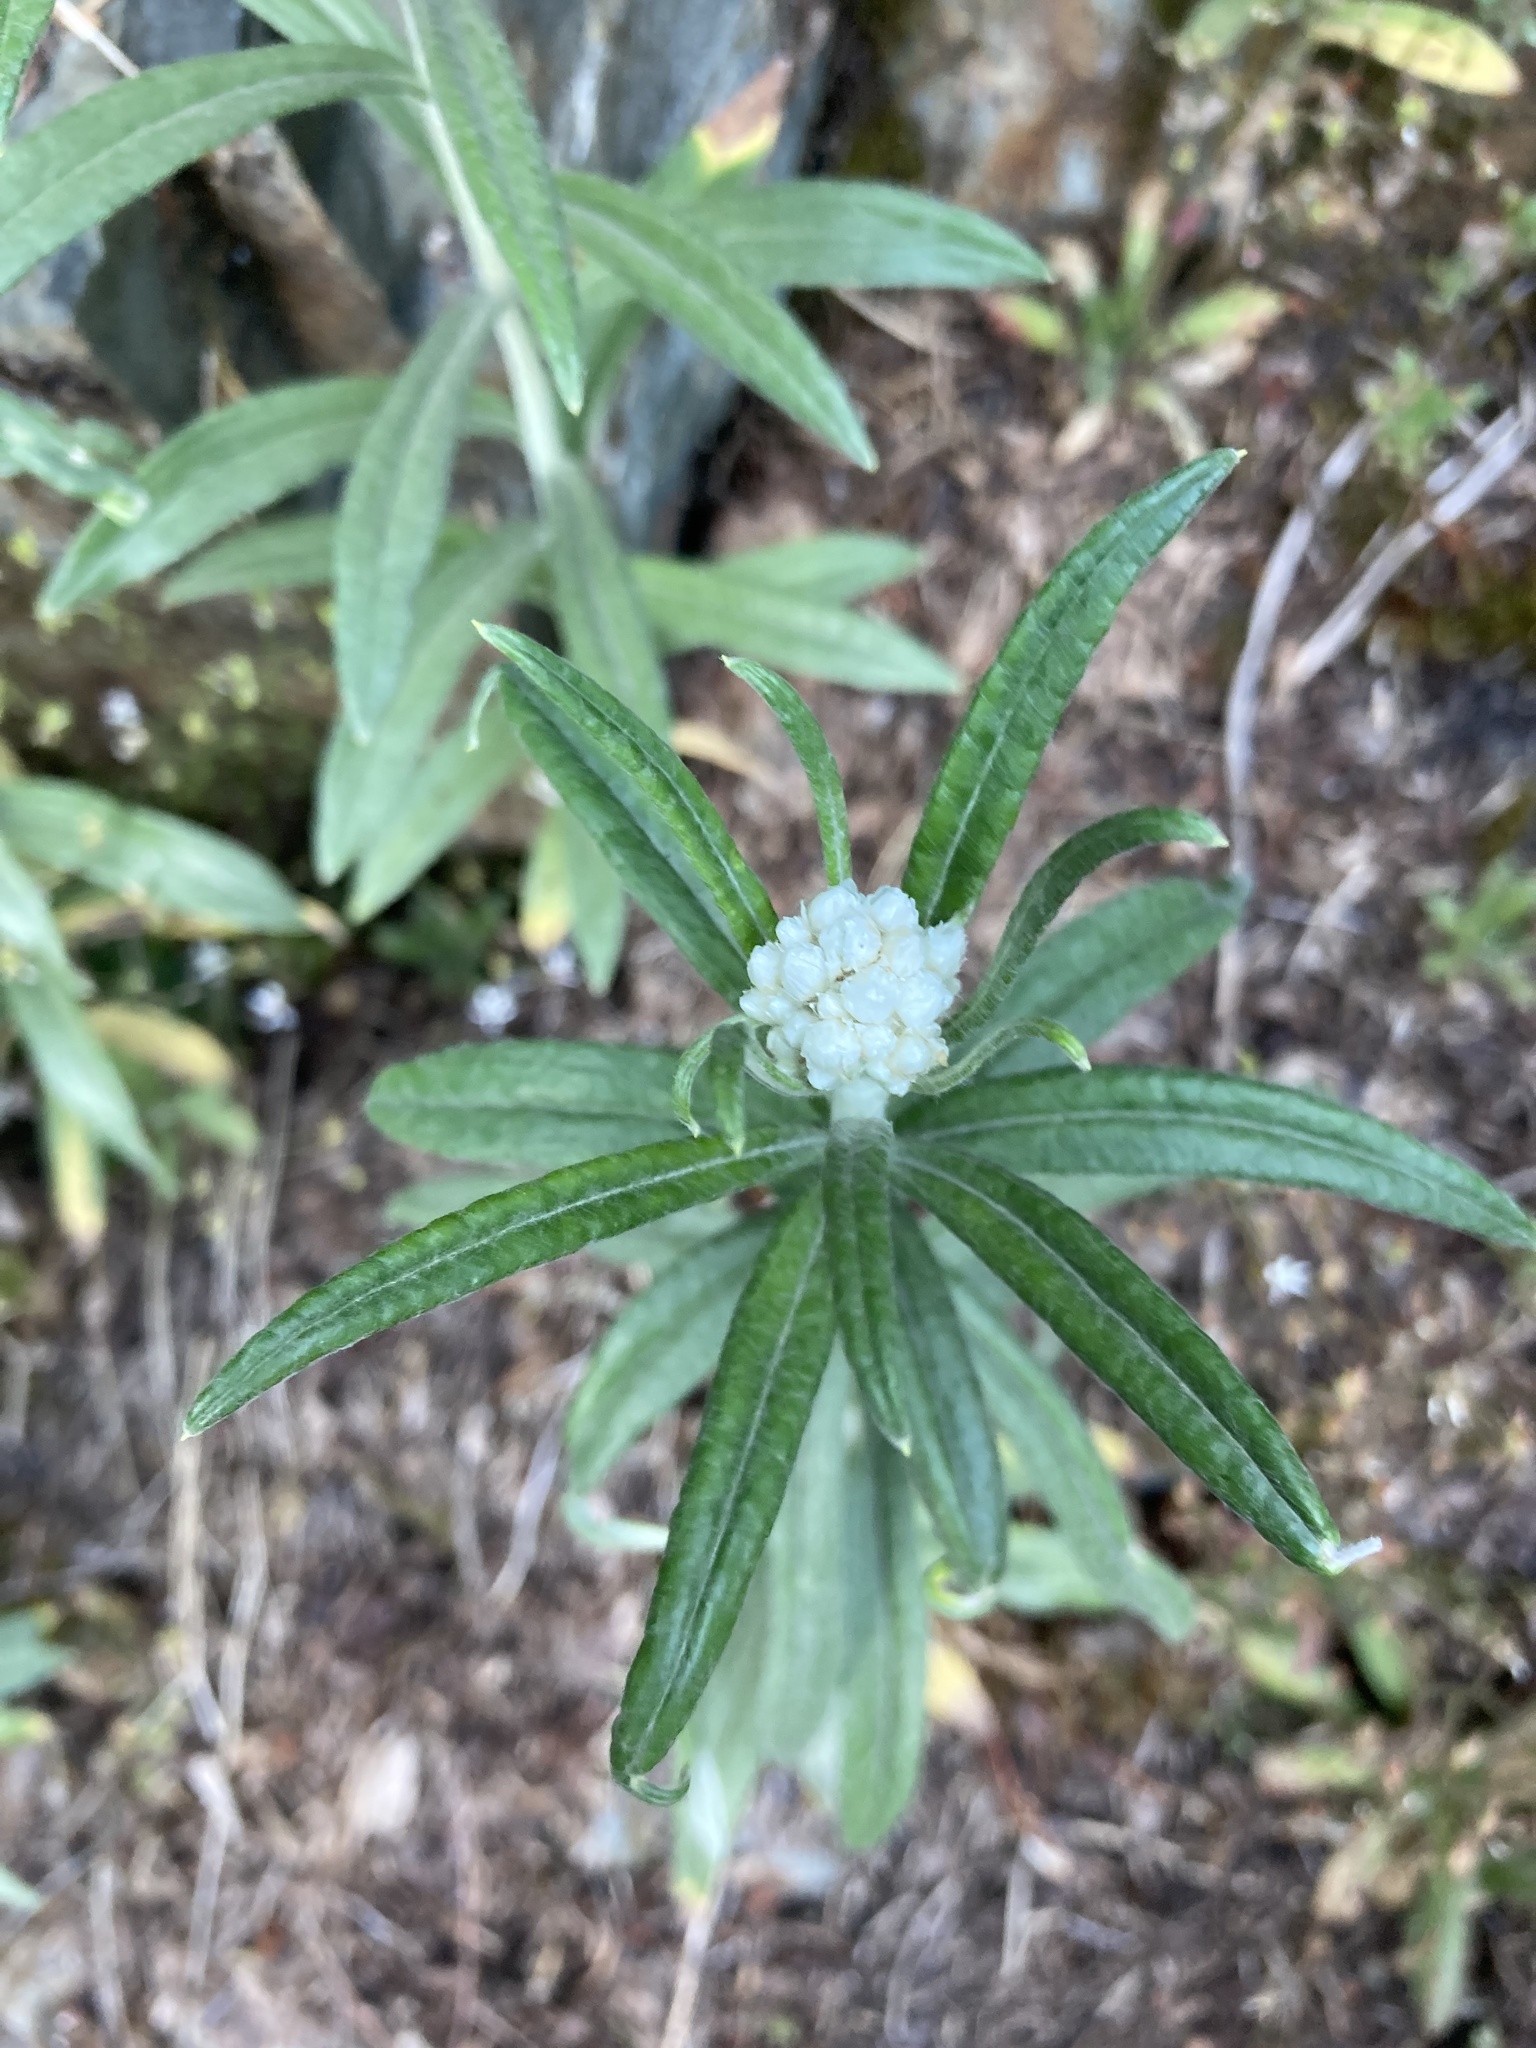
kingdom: Plantae
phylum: Tracheophyta
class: Magnoliopsida
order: Asterales
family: Asteraceae
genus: Anaphalis
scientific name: Anaphalis margaritacea
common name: Pearly everlasting
